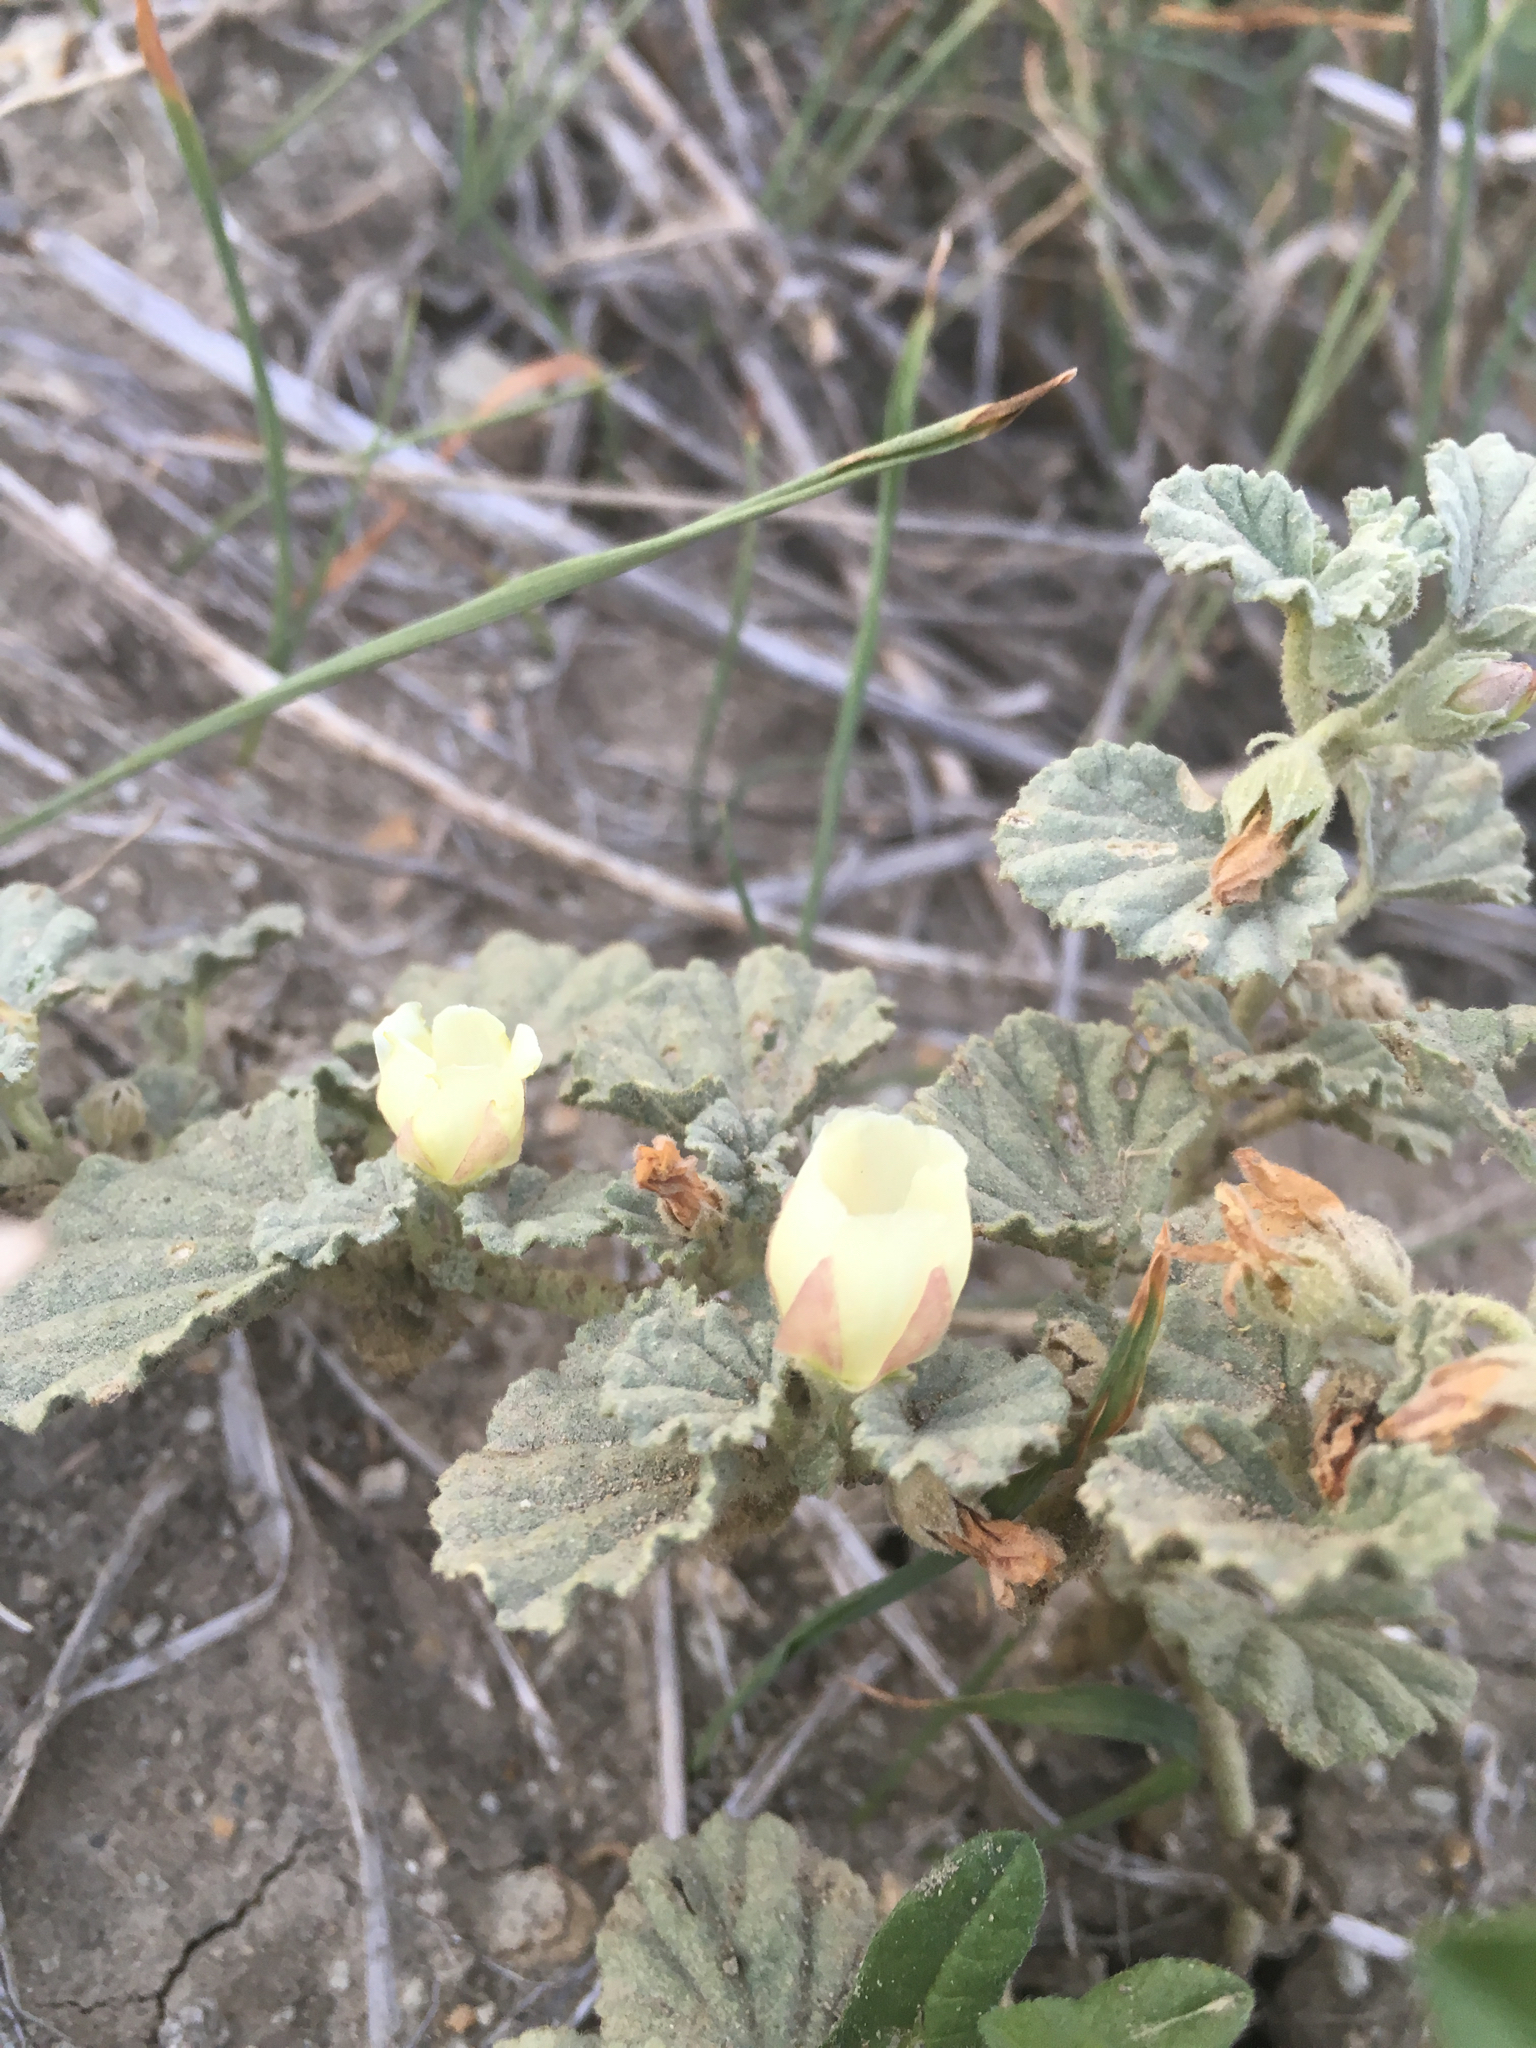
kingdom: Plantae
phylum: Tracheophyta
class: Magnoliopsida
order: Malvales
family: Malvaceae
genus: Malvella
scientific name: Malvella leprosa
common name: Alkali-mallow
